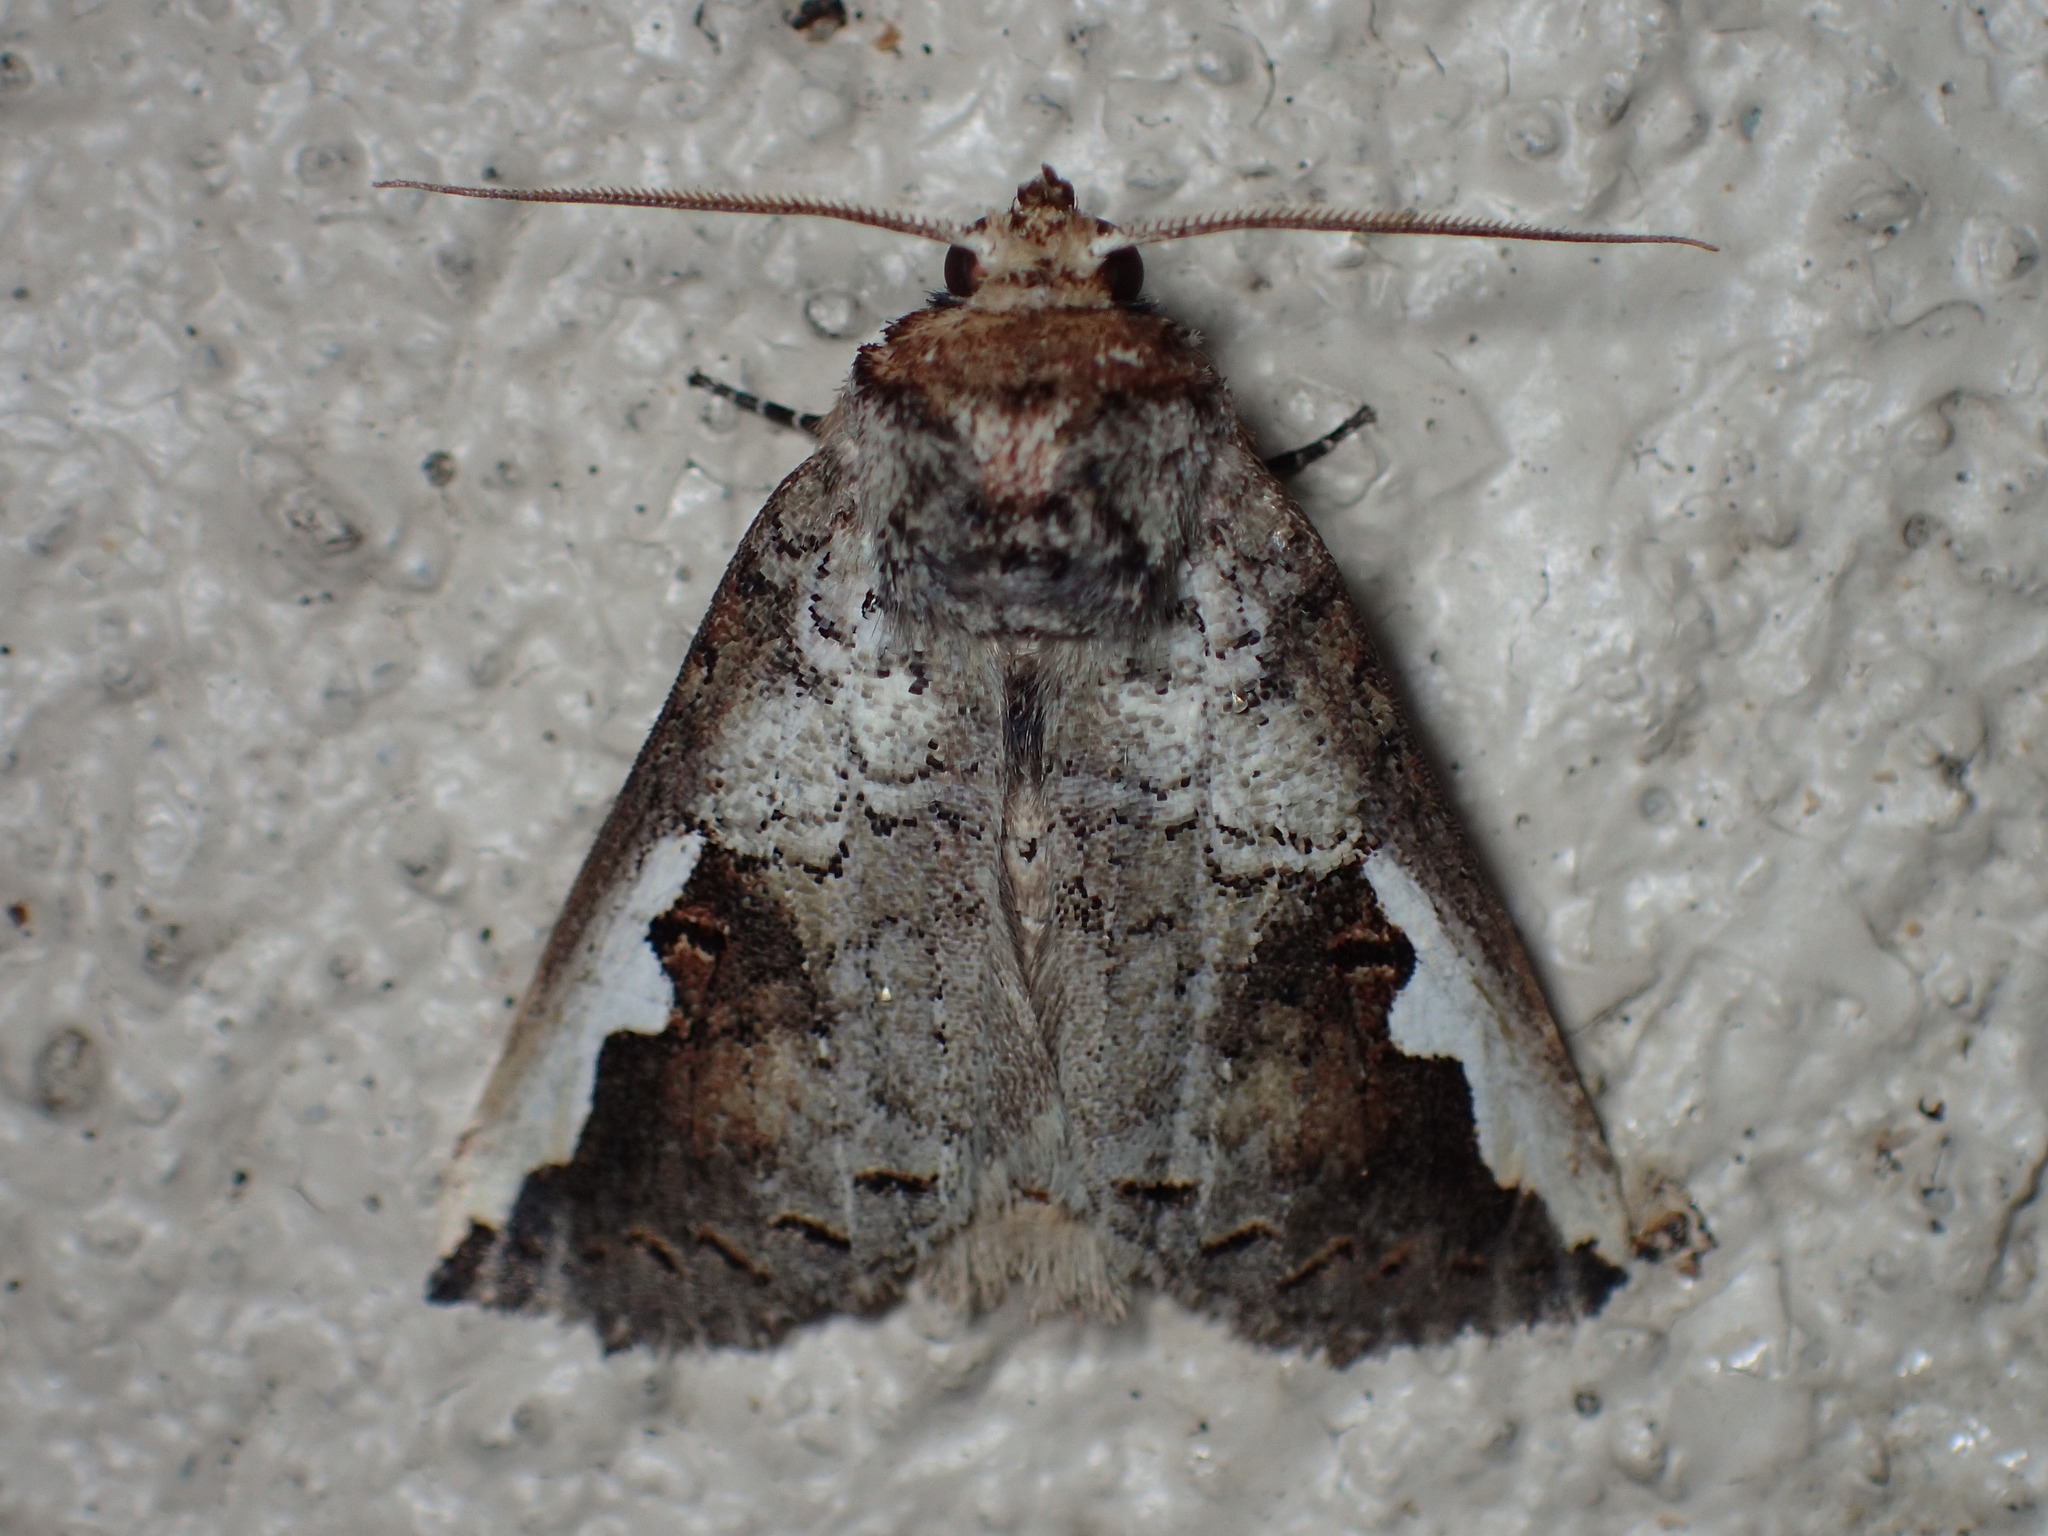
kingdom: Animalia
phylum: Arthropoda
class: Insecta
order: Lepidoptera
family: Notodontidae
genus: Symmerista
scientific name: Symmerista
